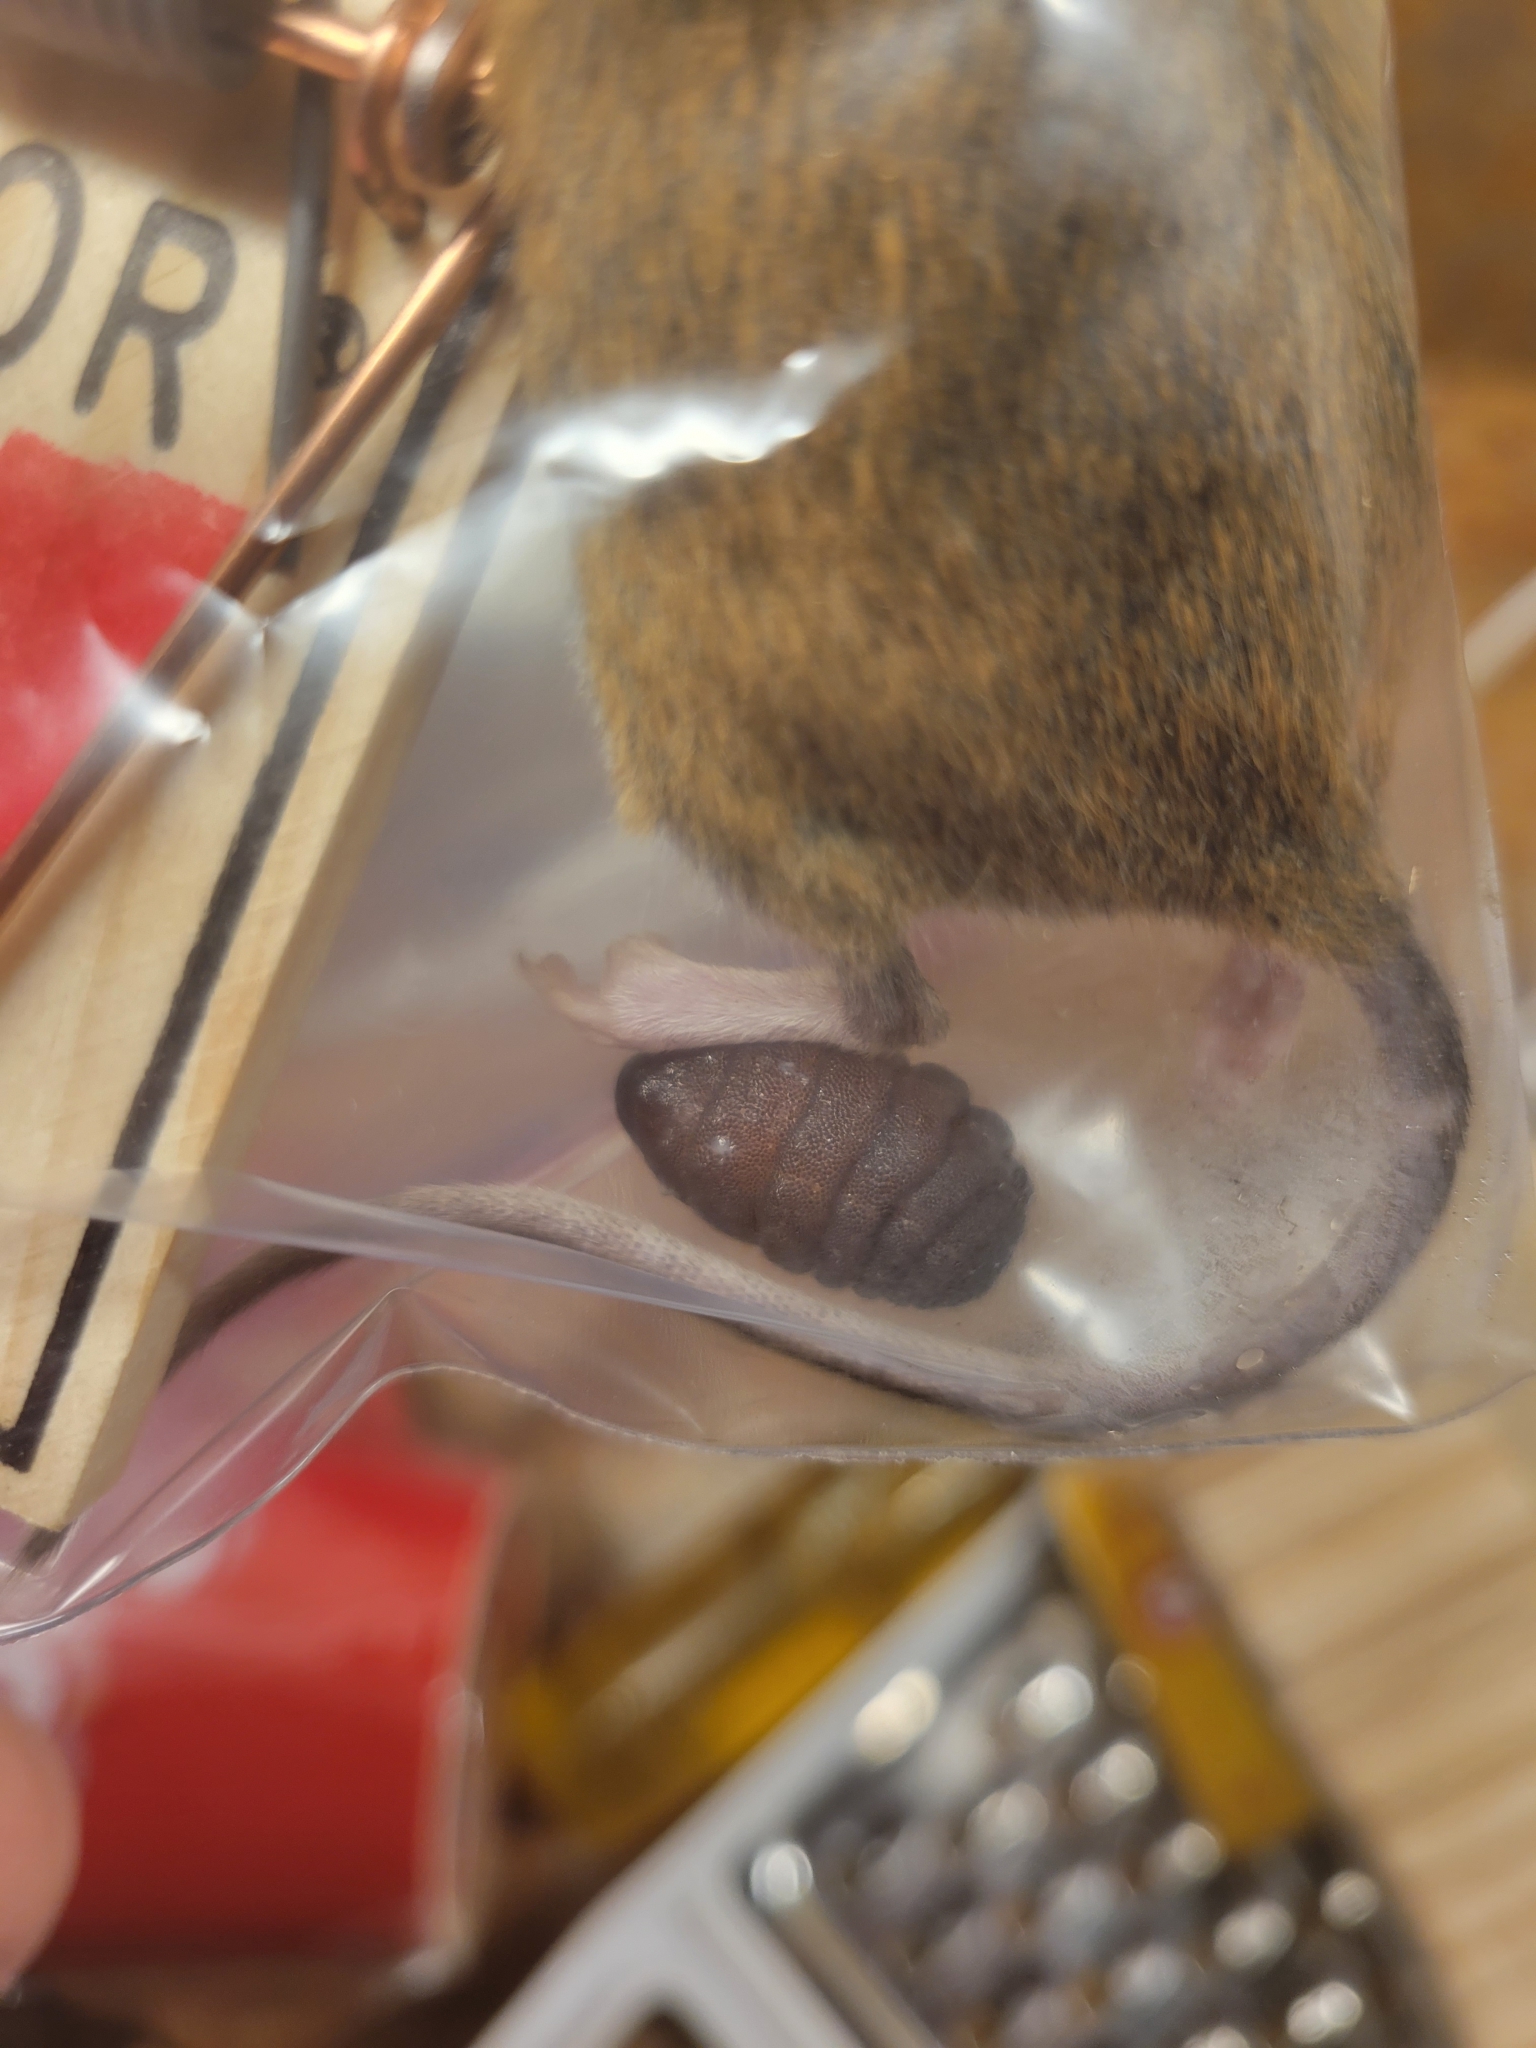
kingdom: Animalia
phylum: Arthropoda
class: Insecta
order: Diptera
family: Oestridae
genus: Cuterebra
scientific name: Cuterebra fontinella
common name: Mouse bot fly
